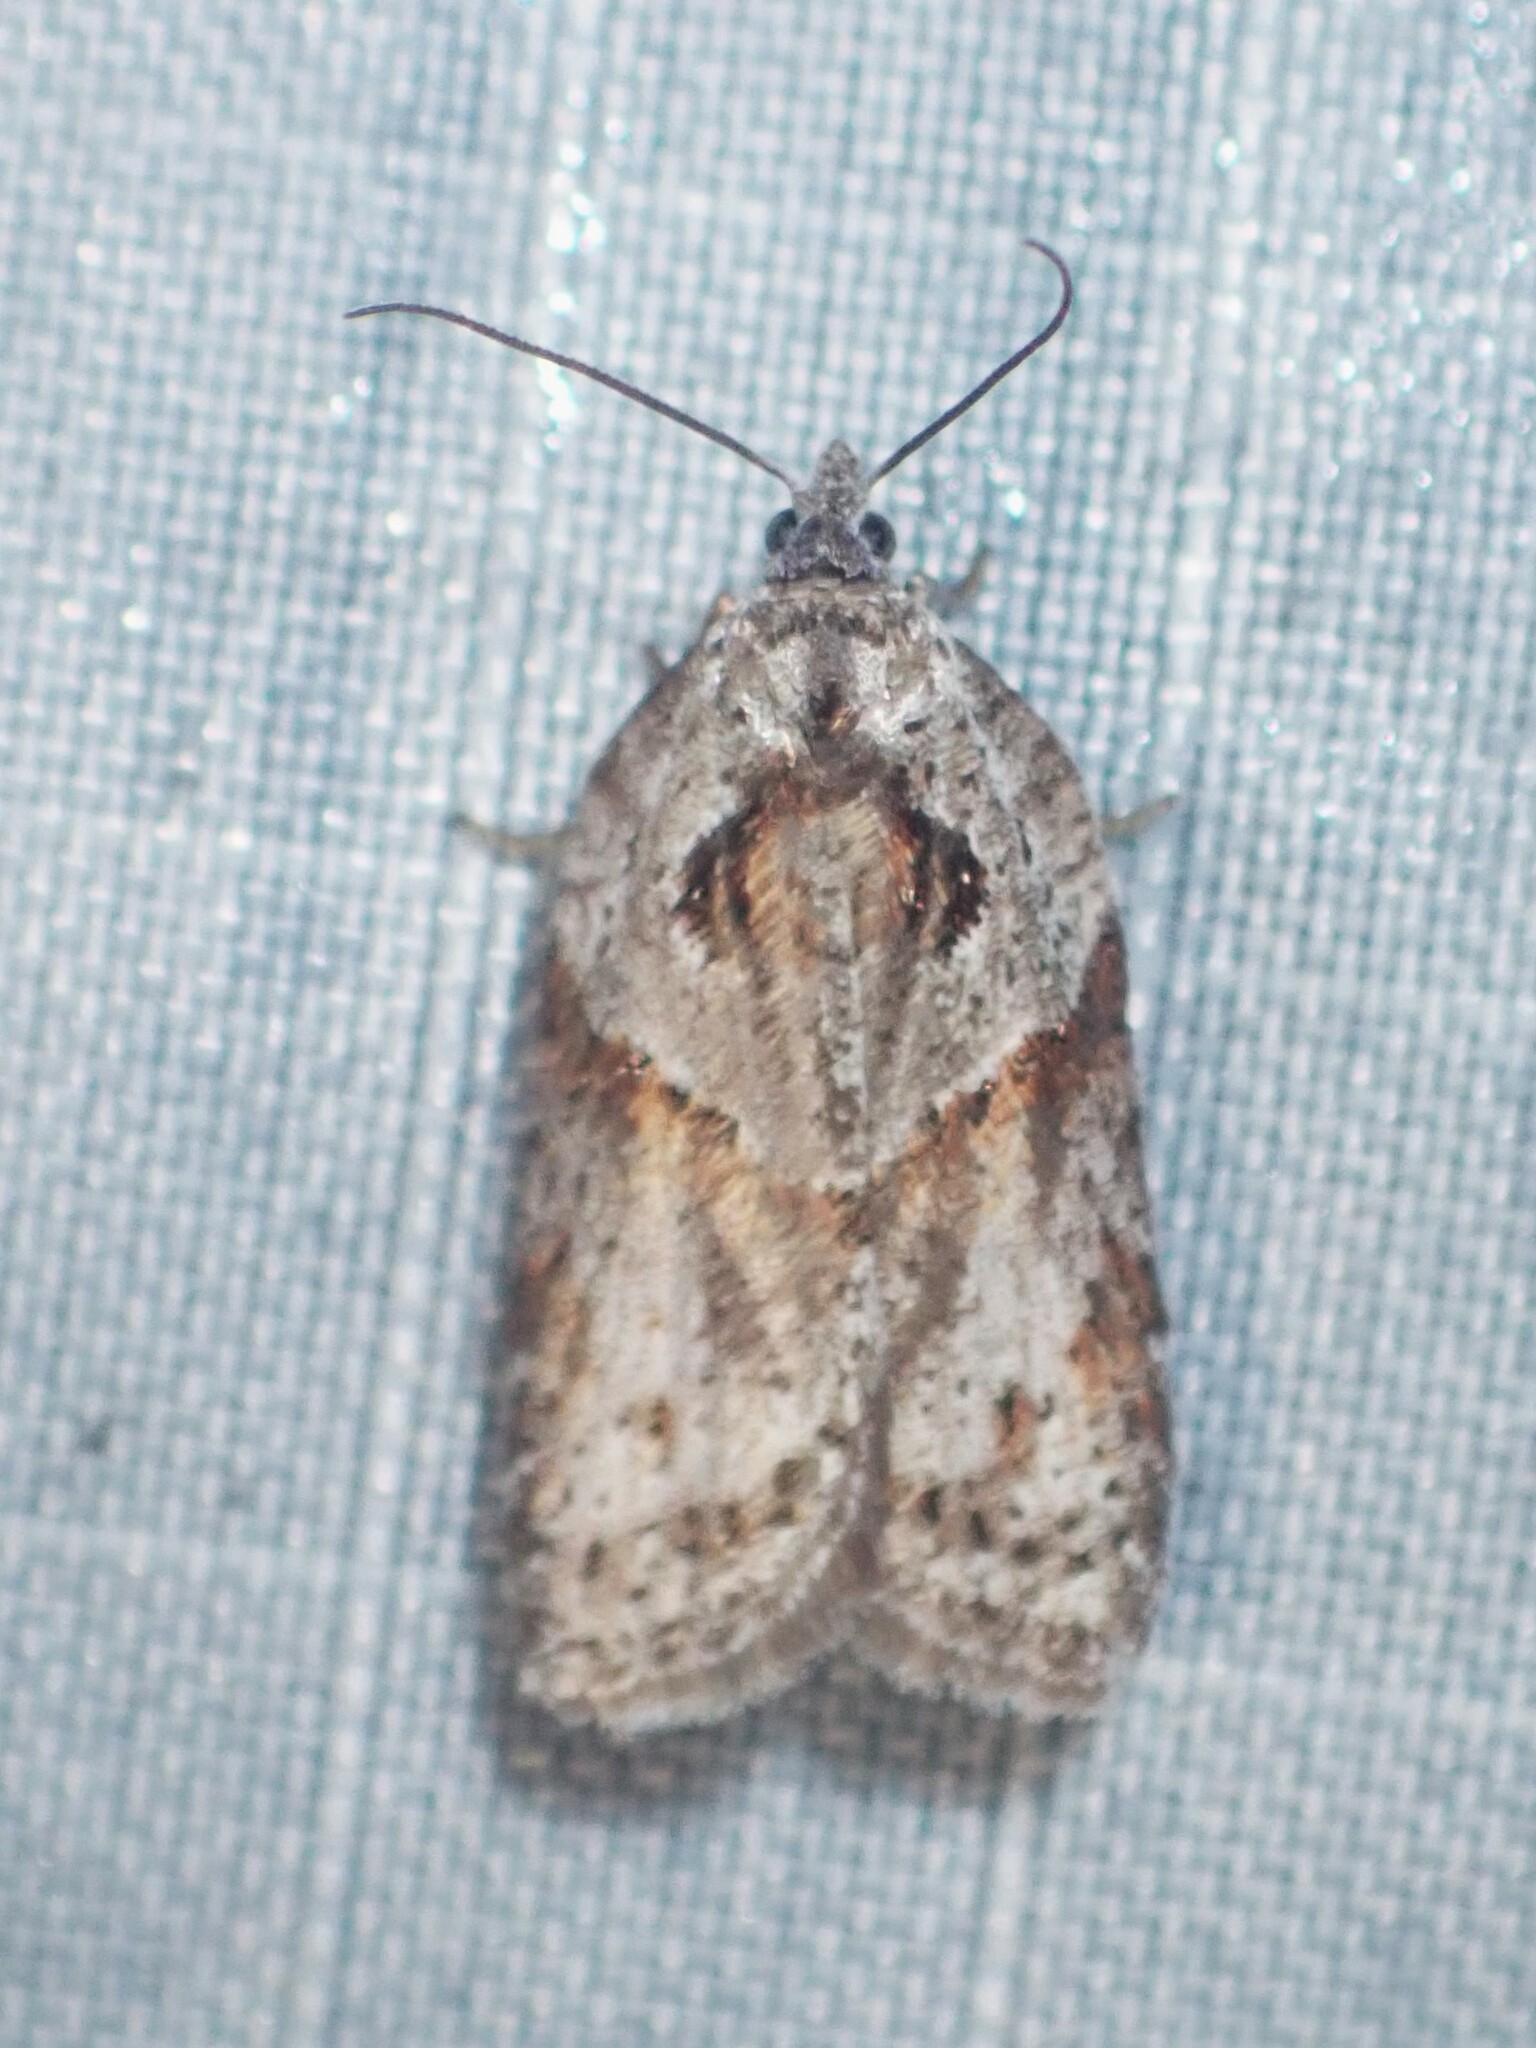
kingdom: Animalia
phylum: Arthropoda
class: Insecta
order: Lepidoptera
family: Tortricidae
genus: Acleris
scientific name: Acleris maculidorsana
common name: Stained-back leafroller moth
